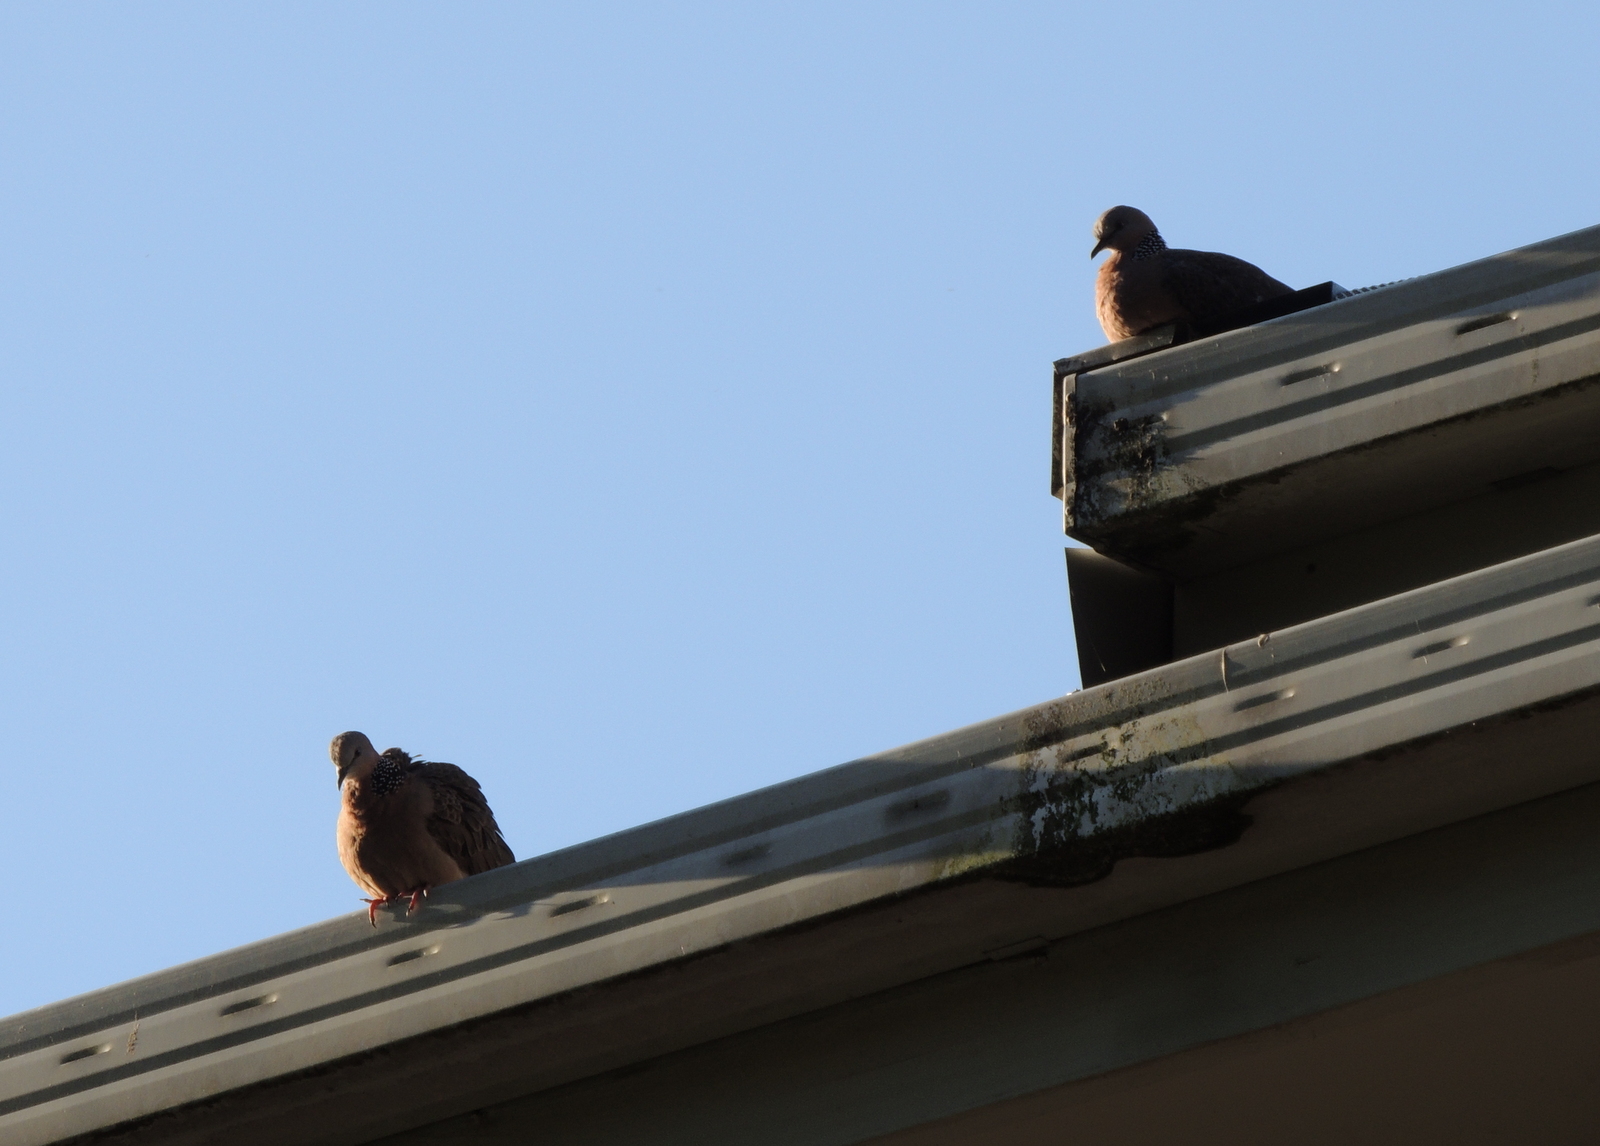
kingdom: Animalia
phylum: Chordata
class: Aves
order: Columbiformes
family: Columbidae
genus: Spilopelia
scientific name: Spilopelia chinensis
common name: Spotted dove
